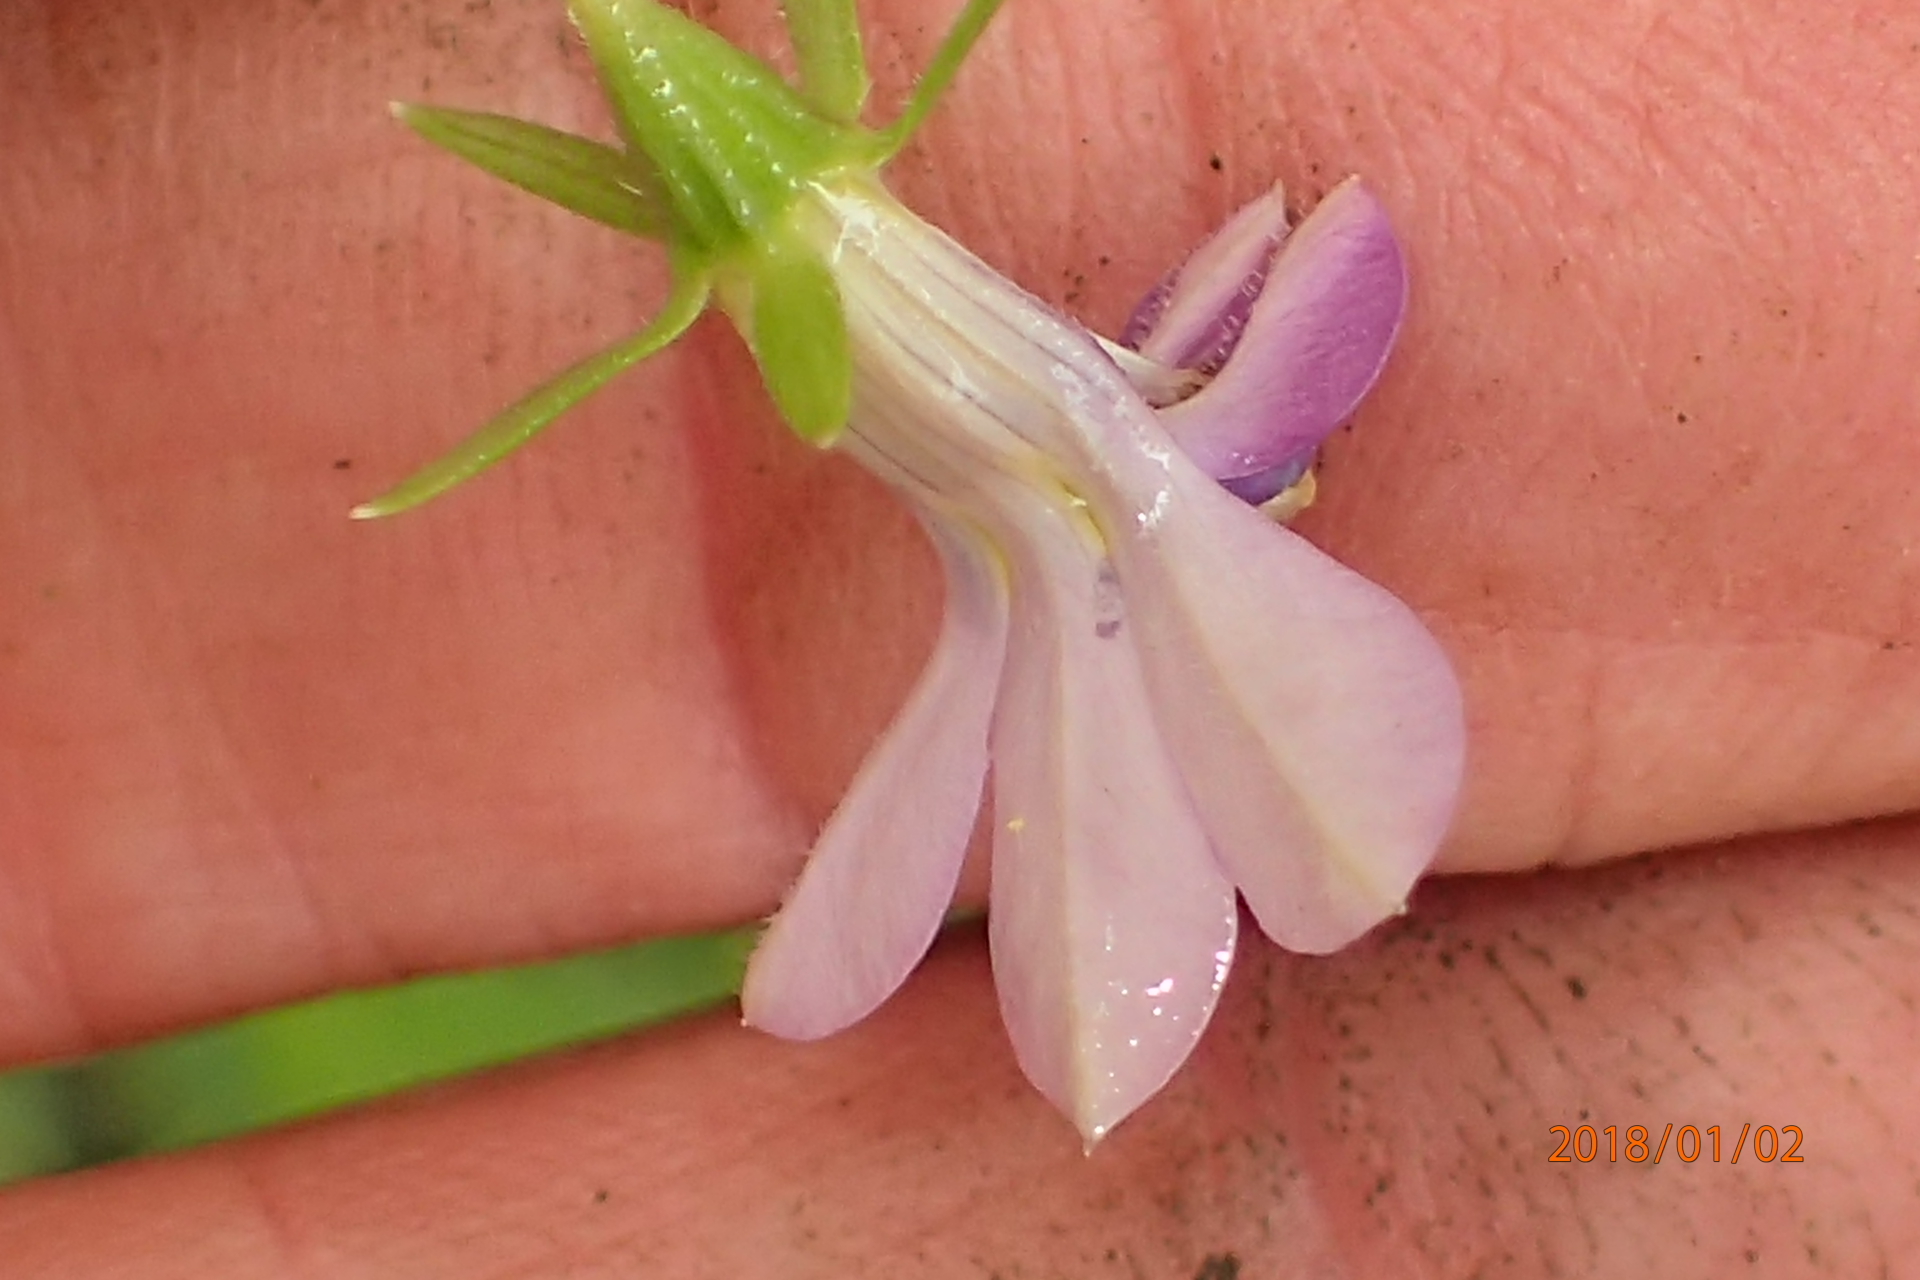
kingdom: Plantae
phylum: Tracheophyta
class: Magnoliopsida
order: Asterales
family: Campanulaceae
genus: Monopsis
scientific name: Monopsis stellarioides
